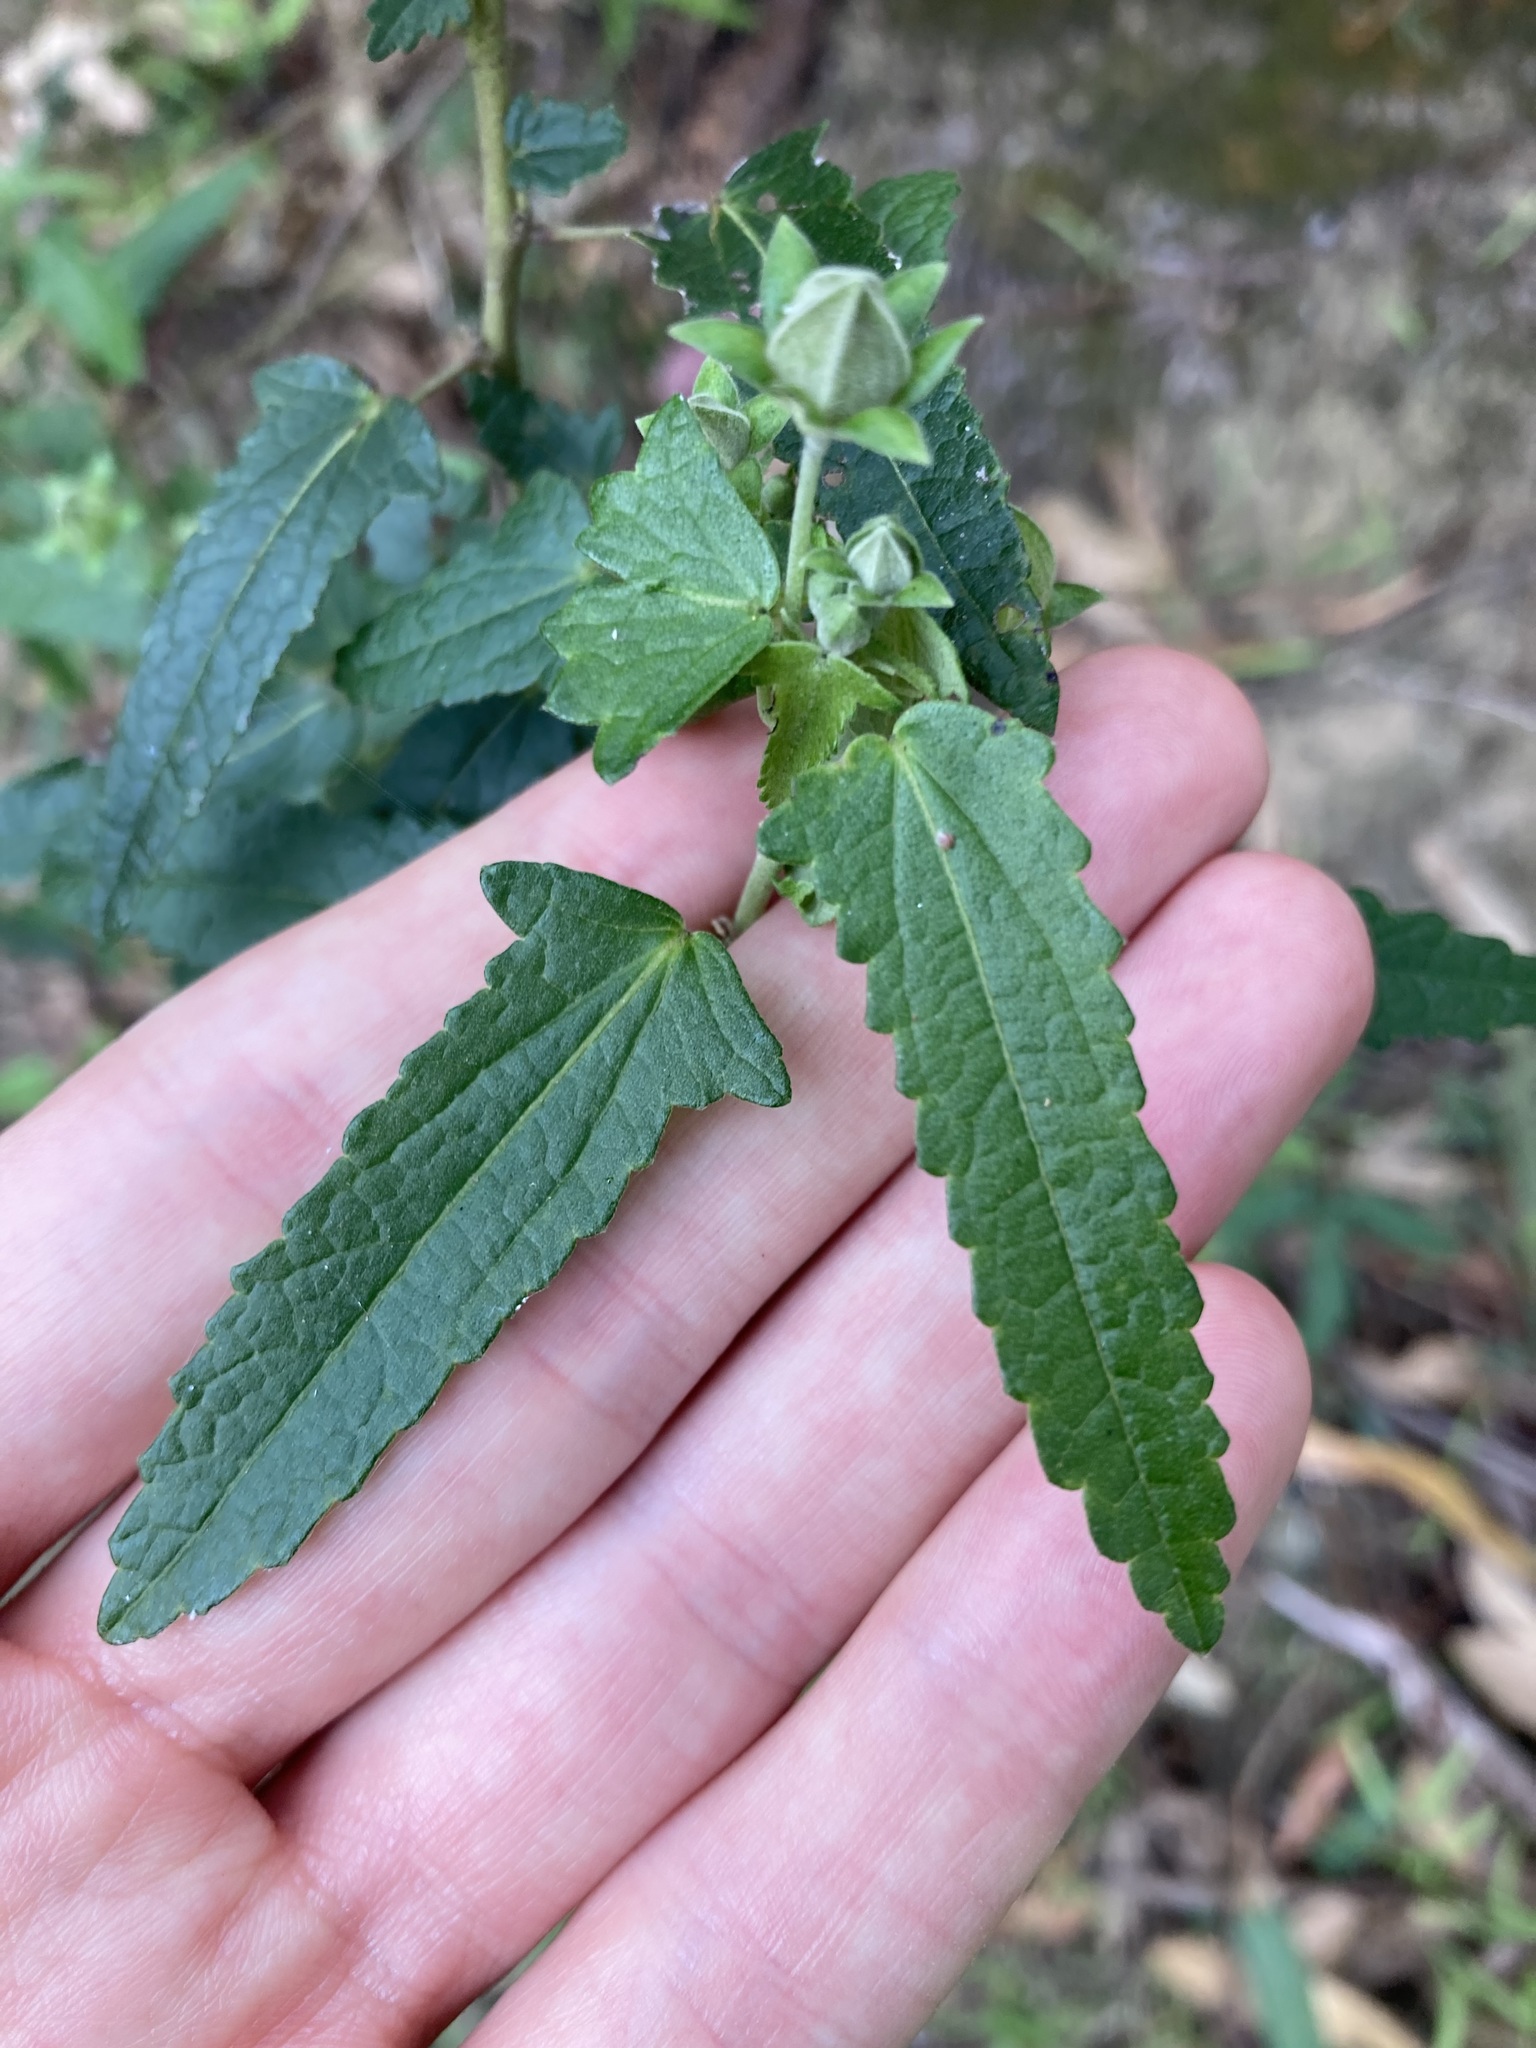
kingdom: Plantae
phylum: Tracheophyta
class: Magnoliopsida
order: Malvales
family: Malvaceae
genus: Pavonia
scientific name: Pavonia hastata
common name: Spearleaf swampmallow
